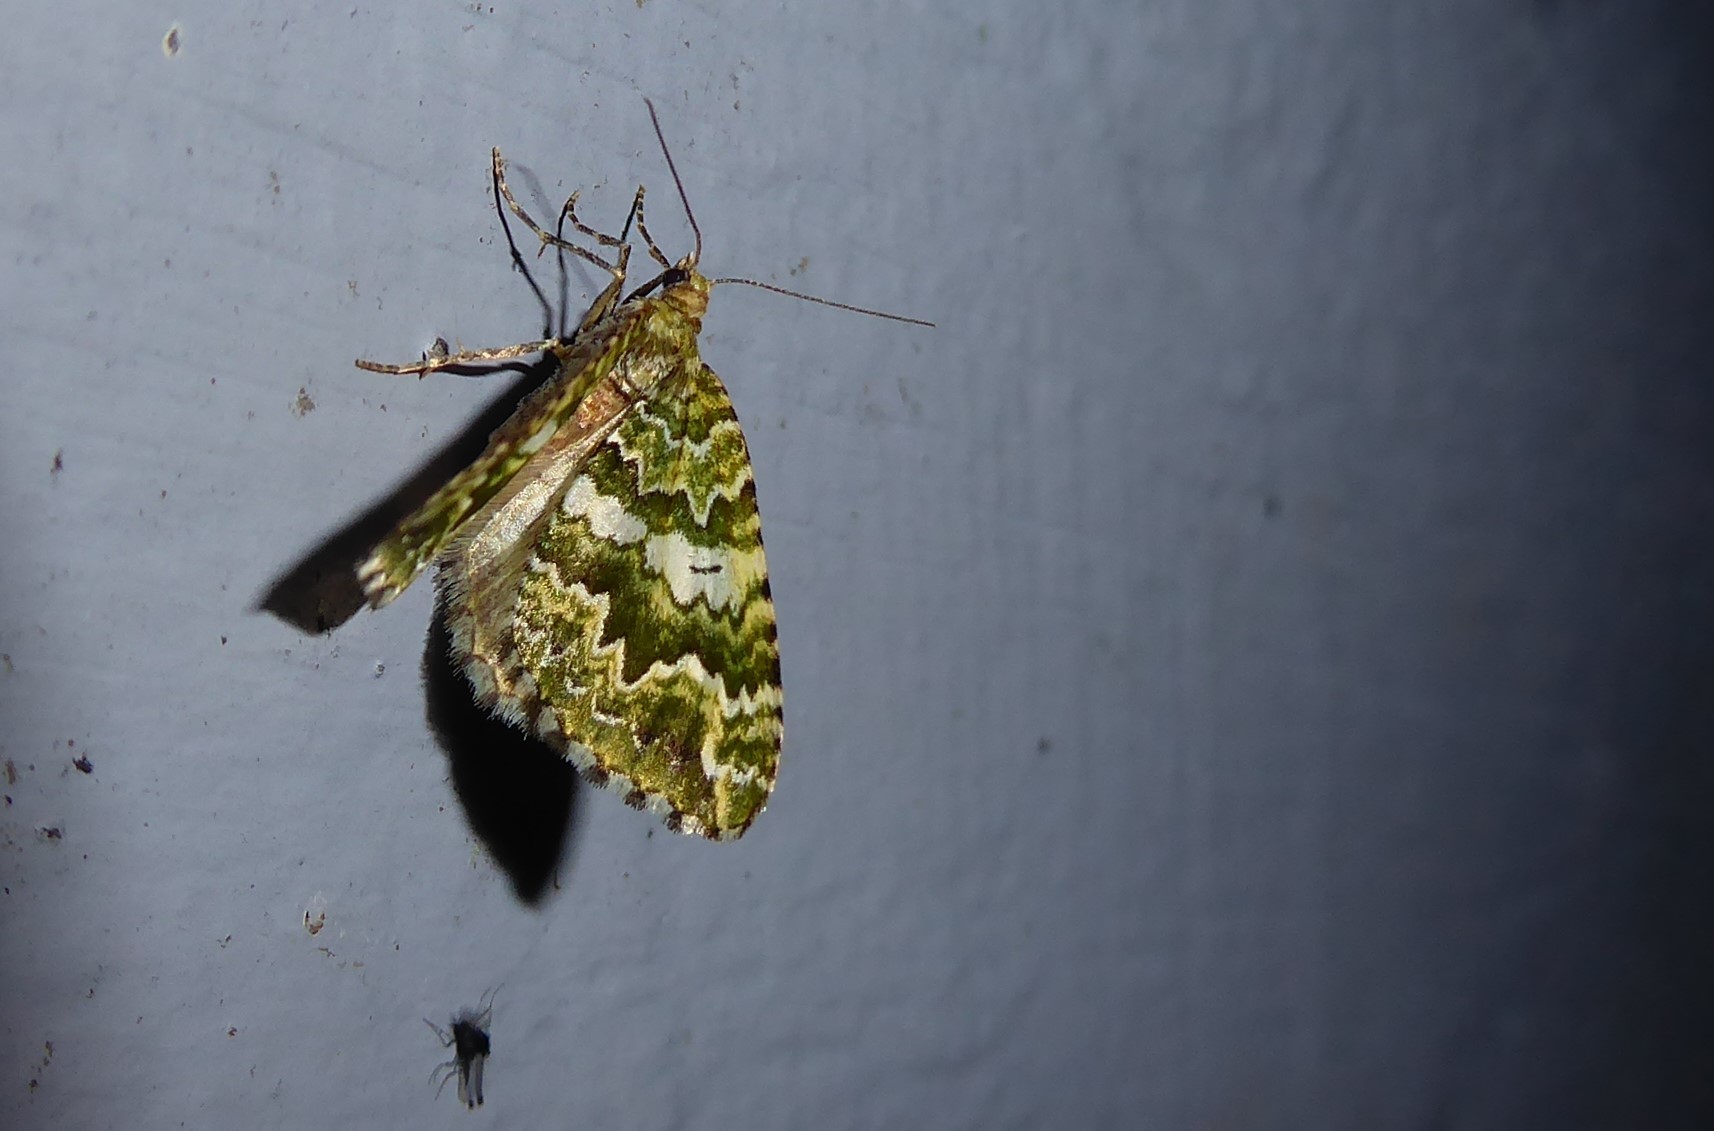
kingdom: Animalia
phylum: Arthropoda
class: Insecta
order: Lepidoptera
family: Geometridae
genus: Asaphodes
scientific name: Asaphodes beata
